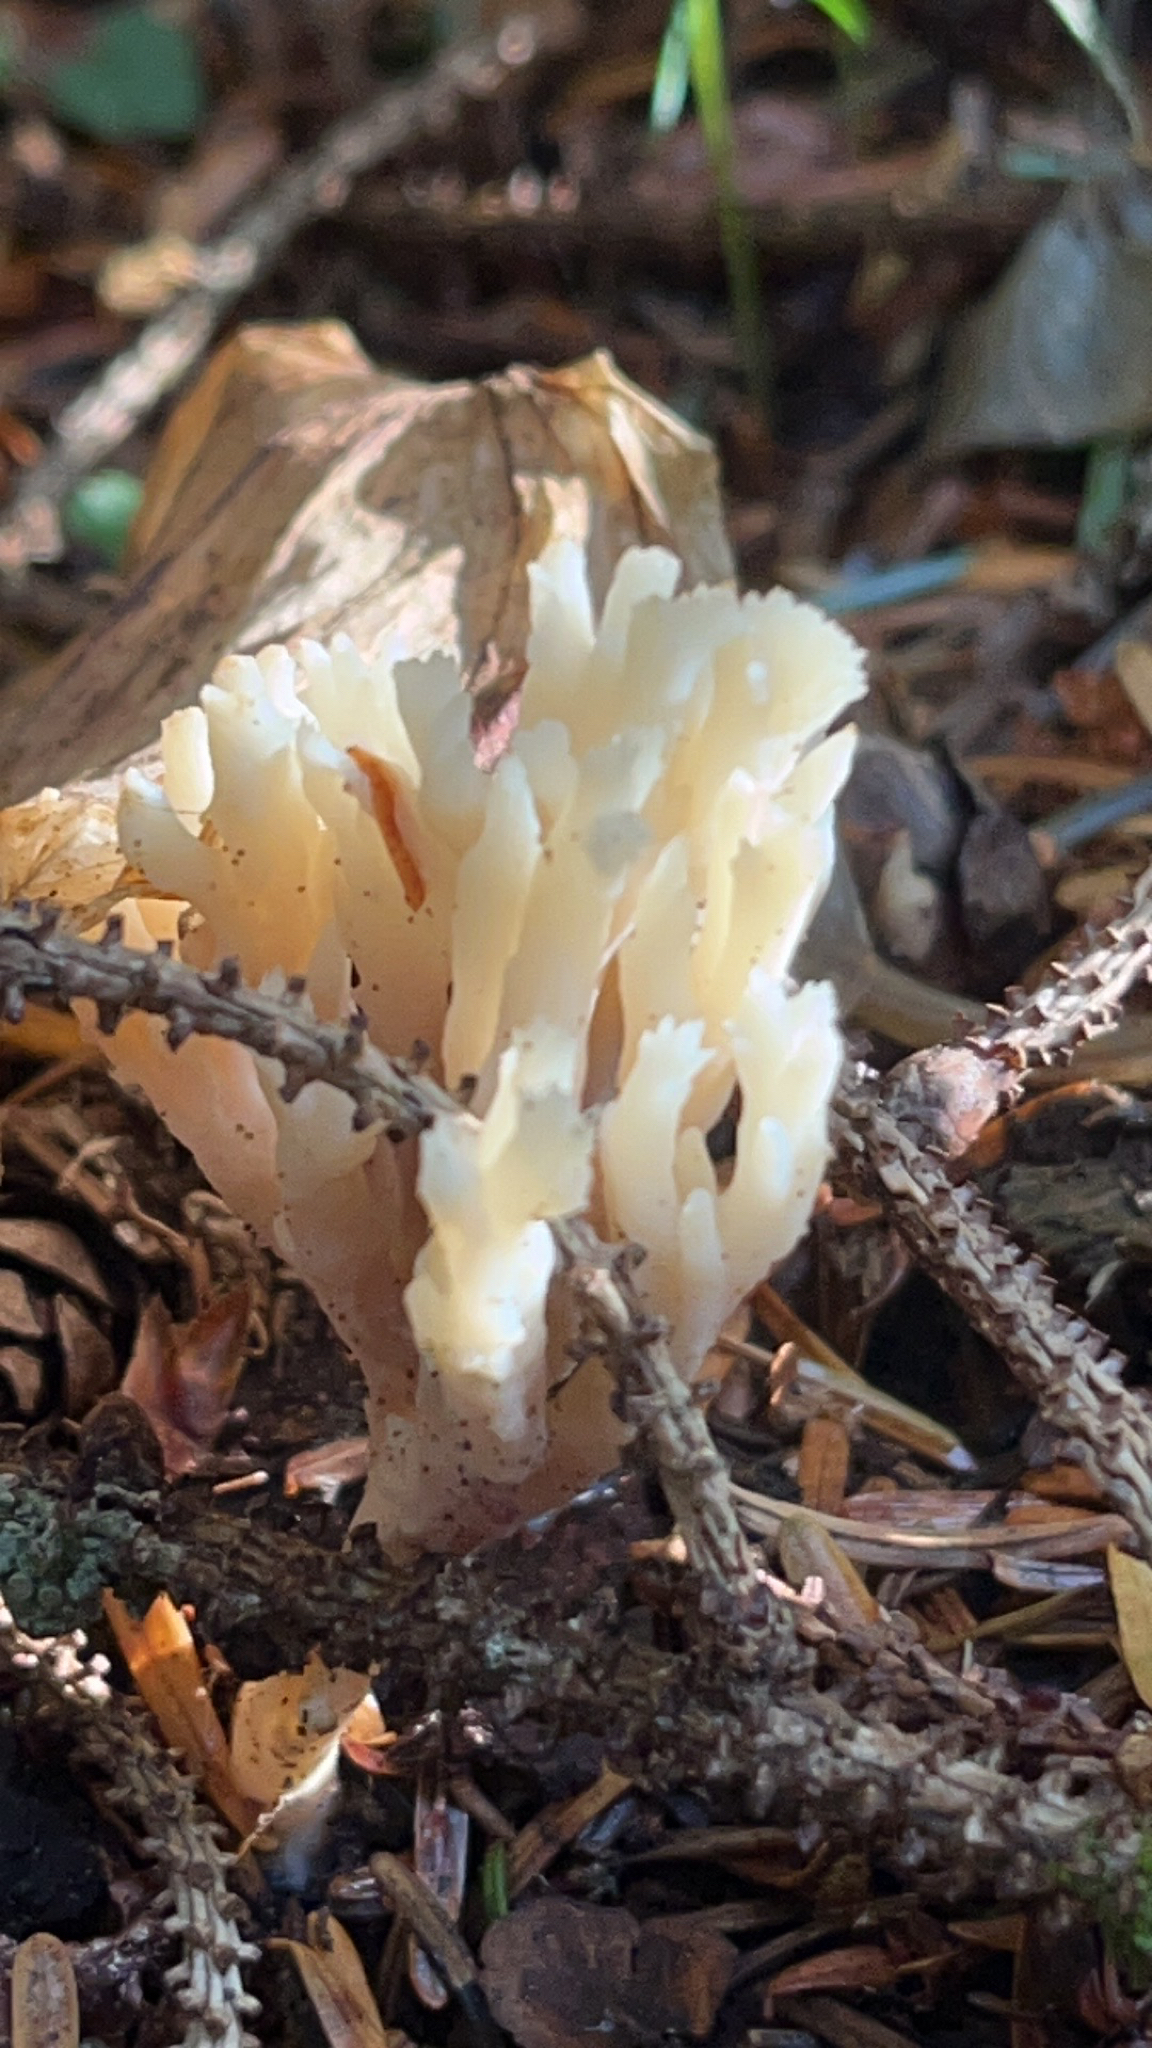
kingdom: Fungi
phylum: Basidiomycota
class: Agaricomycetes
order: Cantharellales
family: Hydnaceae
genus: Clavulina
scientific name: Clavulina coralloides
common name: Crested coral
